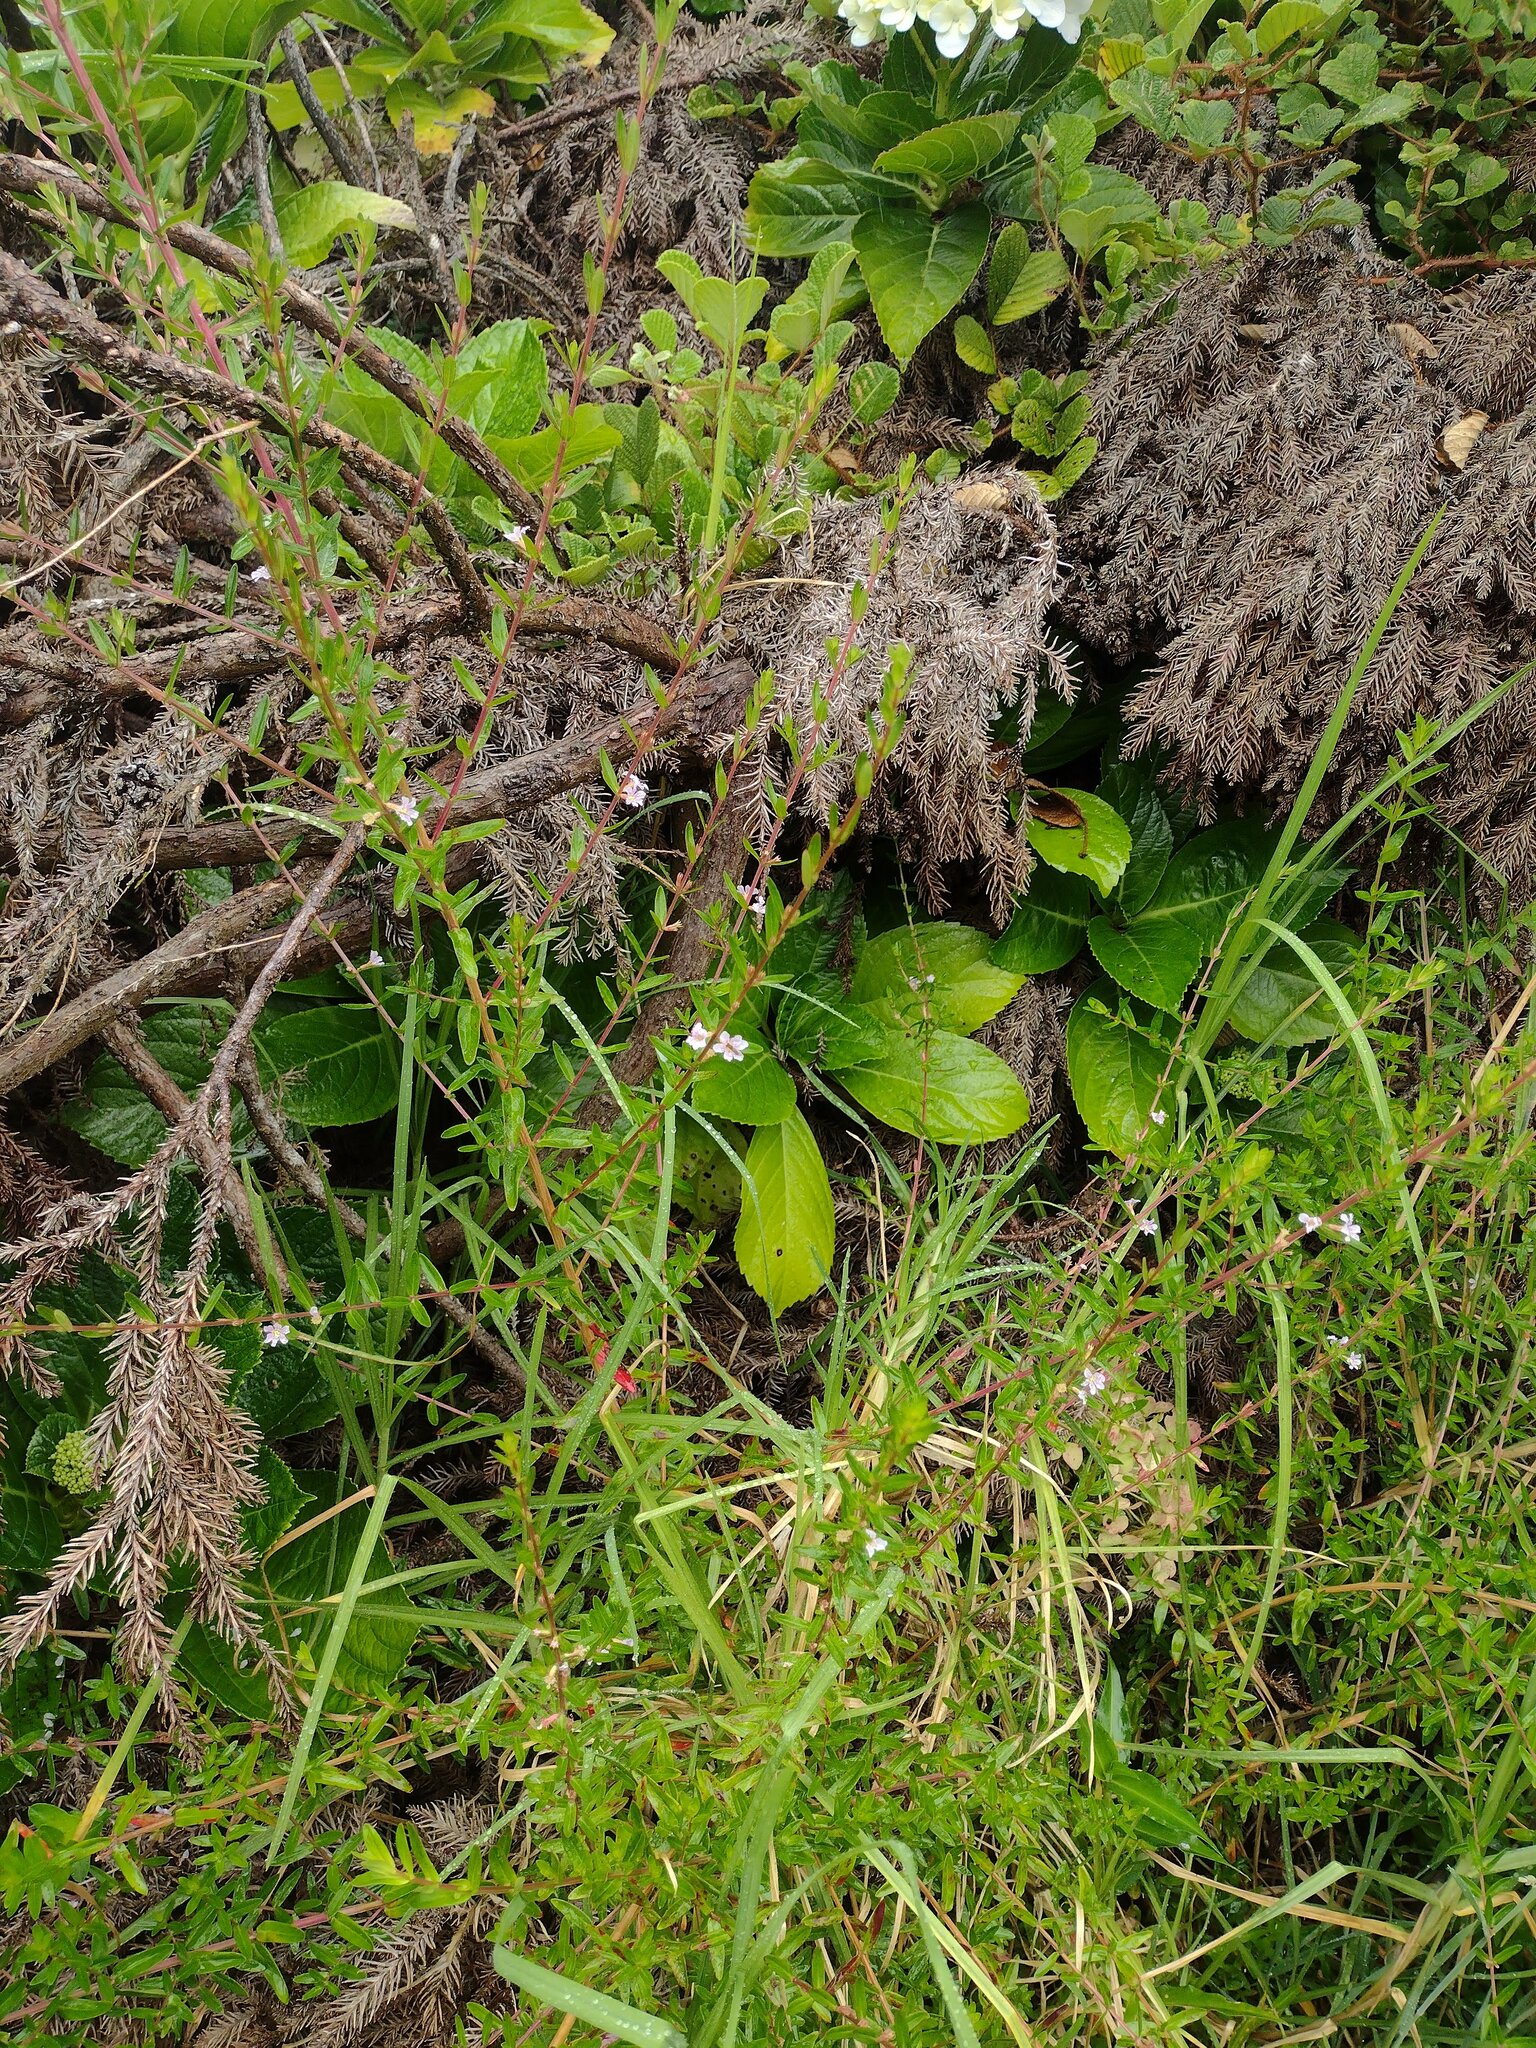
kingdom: Plantae
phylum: Tracheophyta
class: Magnoliopsida
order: Myrtales
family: Lythraceae
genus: Lythrum
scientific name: Lythrum maritimum
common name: Pukamole
